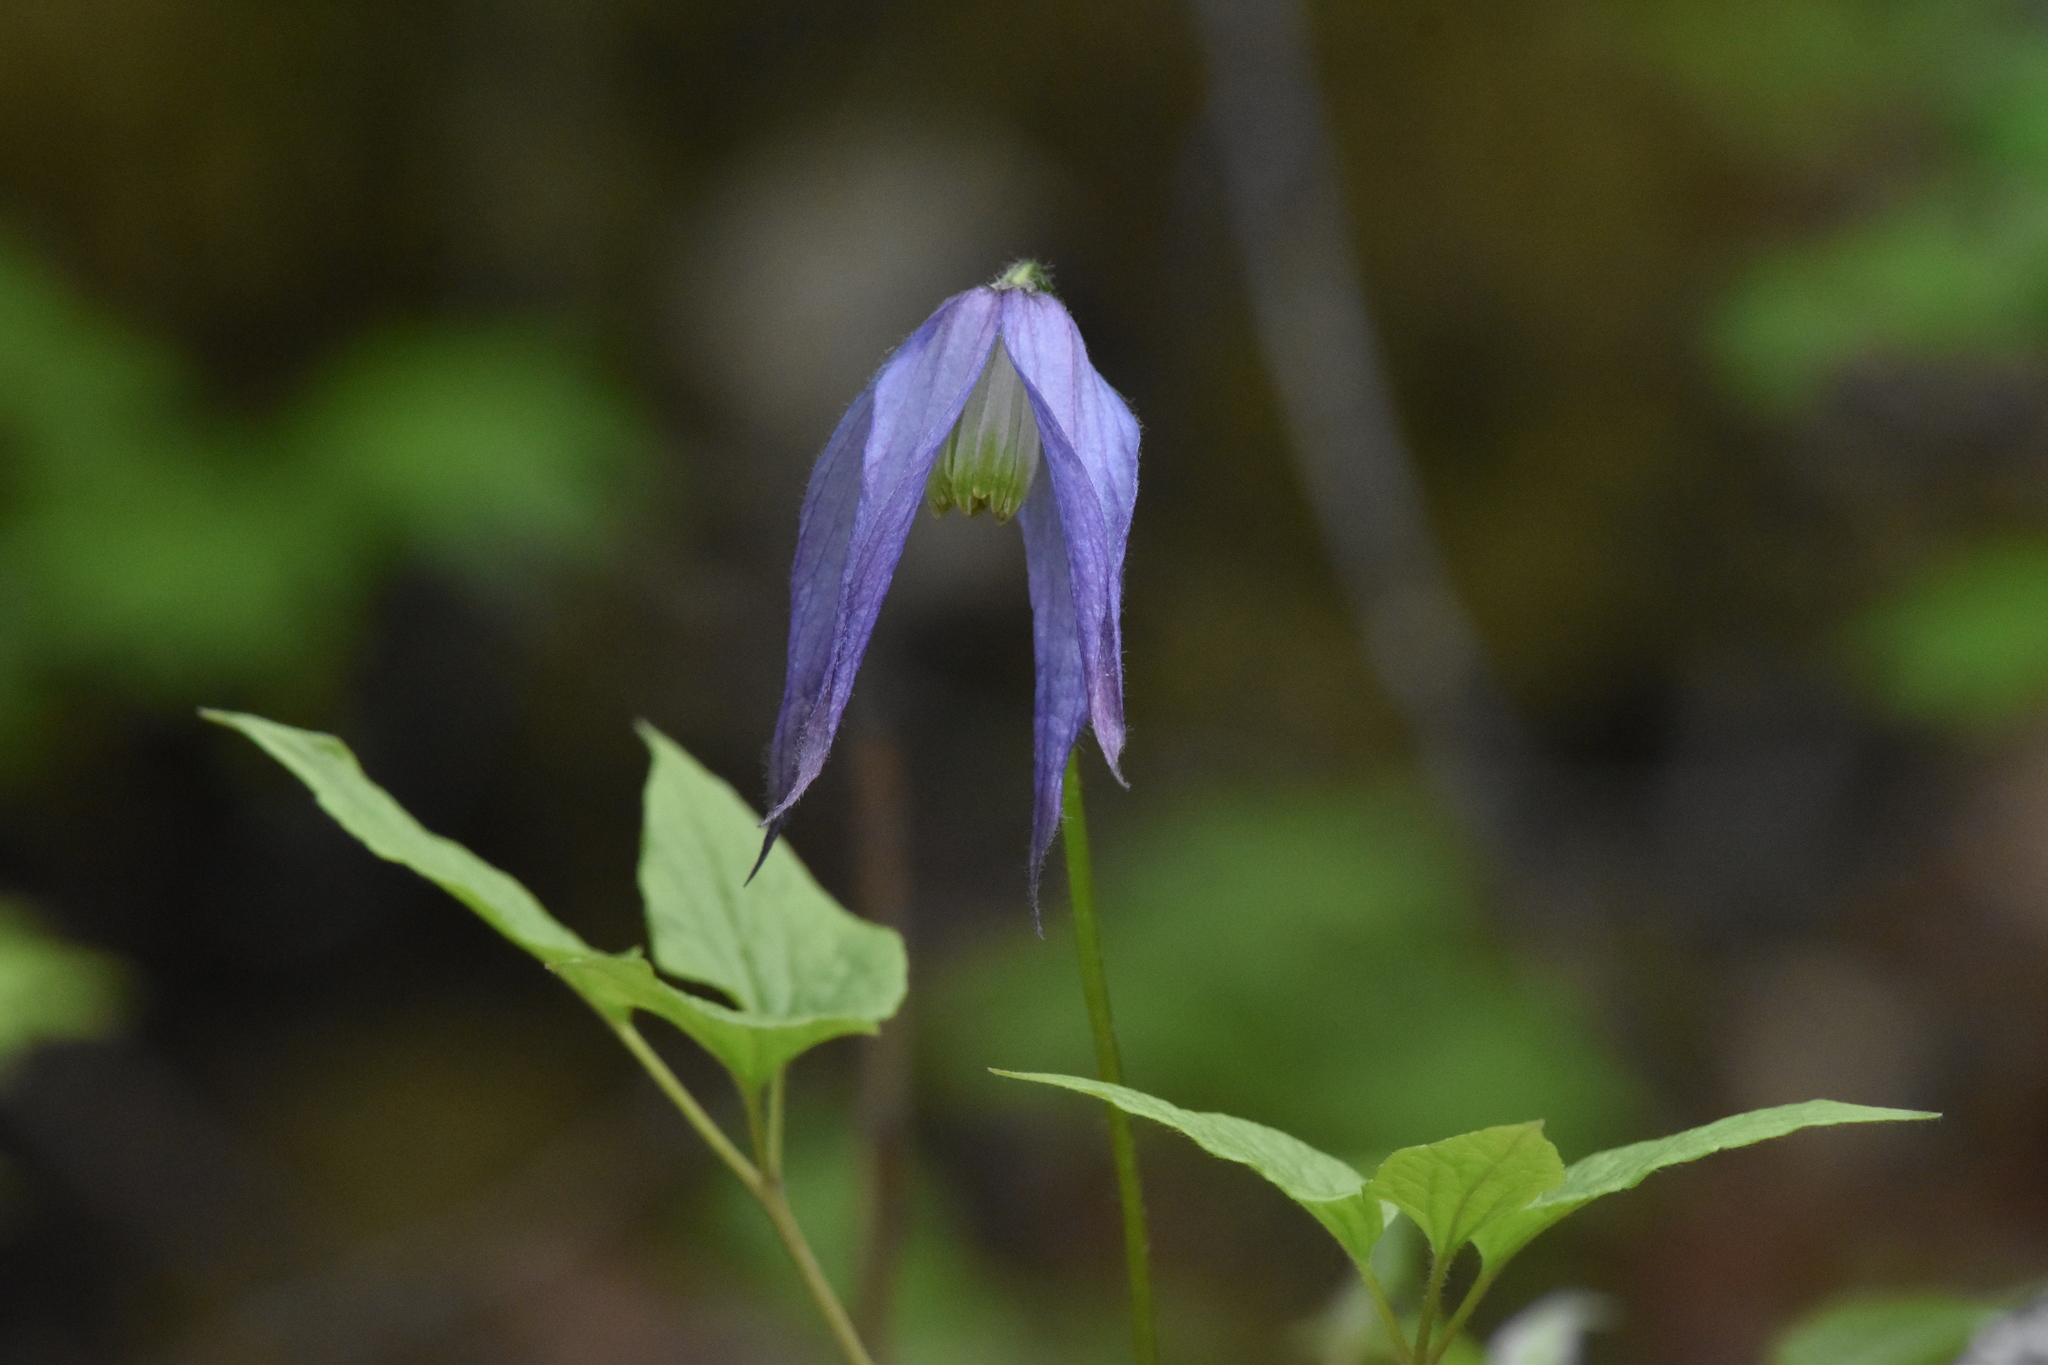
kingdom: Plantae
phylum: Tracheophyta
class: Magnoliopsida
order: Ranunculales
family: Ranunculaceae
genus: Clematis
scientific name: Clematis occidentalis
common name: Purple clematis
